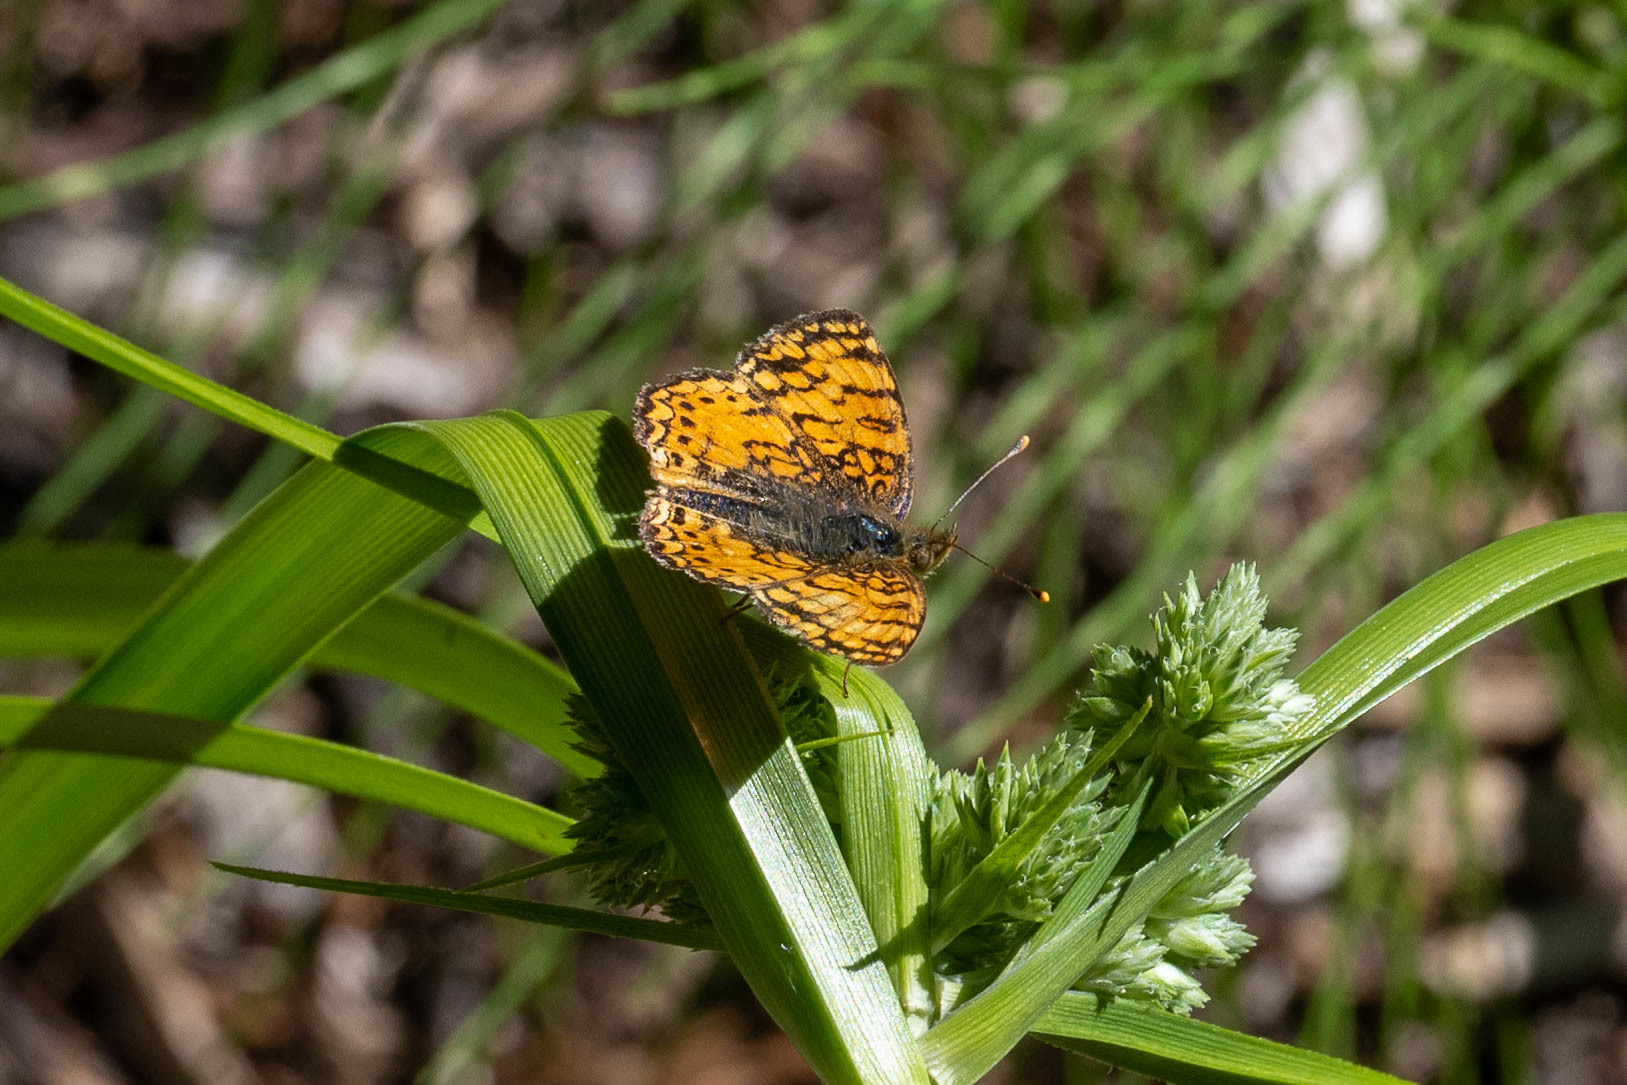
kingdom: Animalia
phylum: Arthropoda
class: Insecta
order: Lepidoptera
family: Nymphalidae
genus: Eresia
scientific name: Eresia aveyrona
